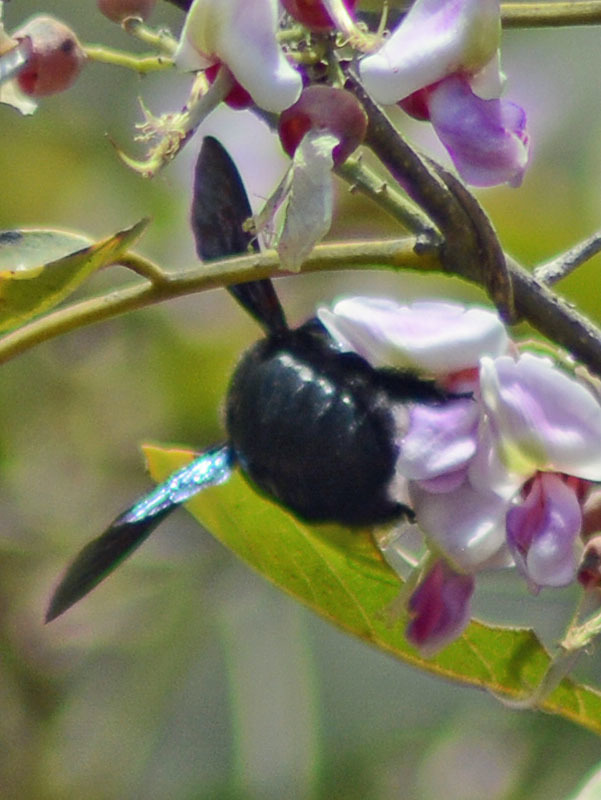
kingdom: Animalia
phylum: Arthropoda
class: Insecta
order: Hymenoptera
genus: Neoxylocopa
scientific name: Neoxylocopa
